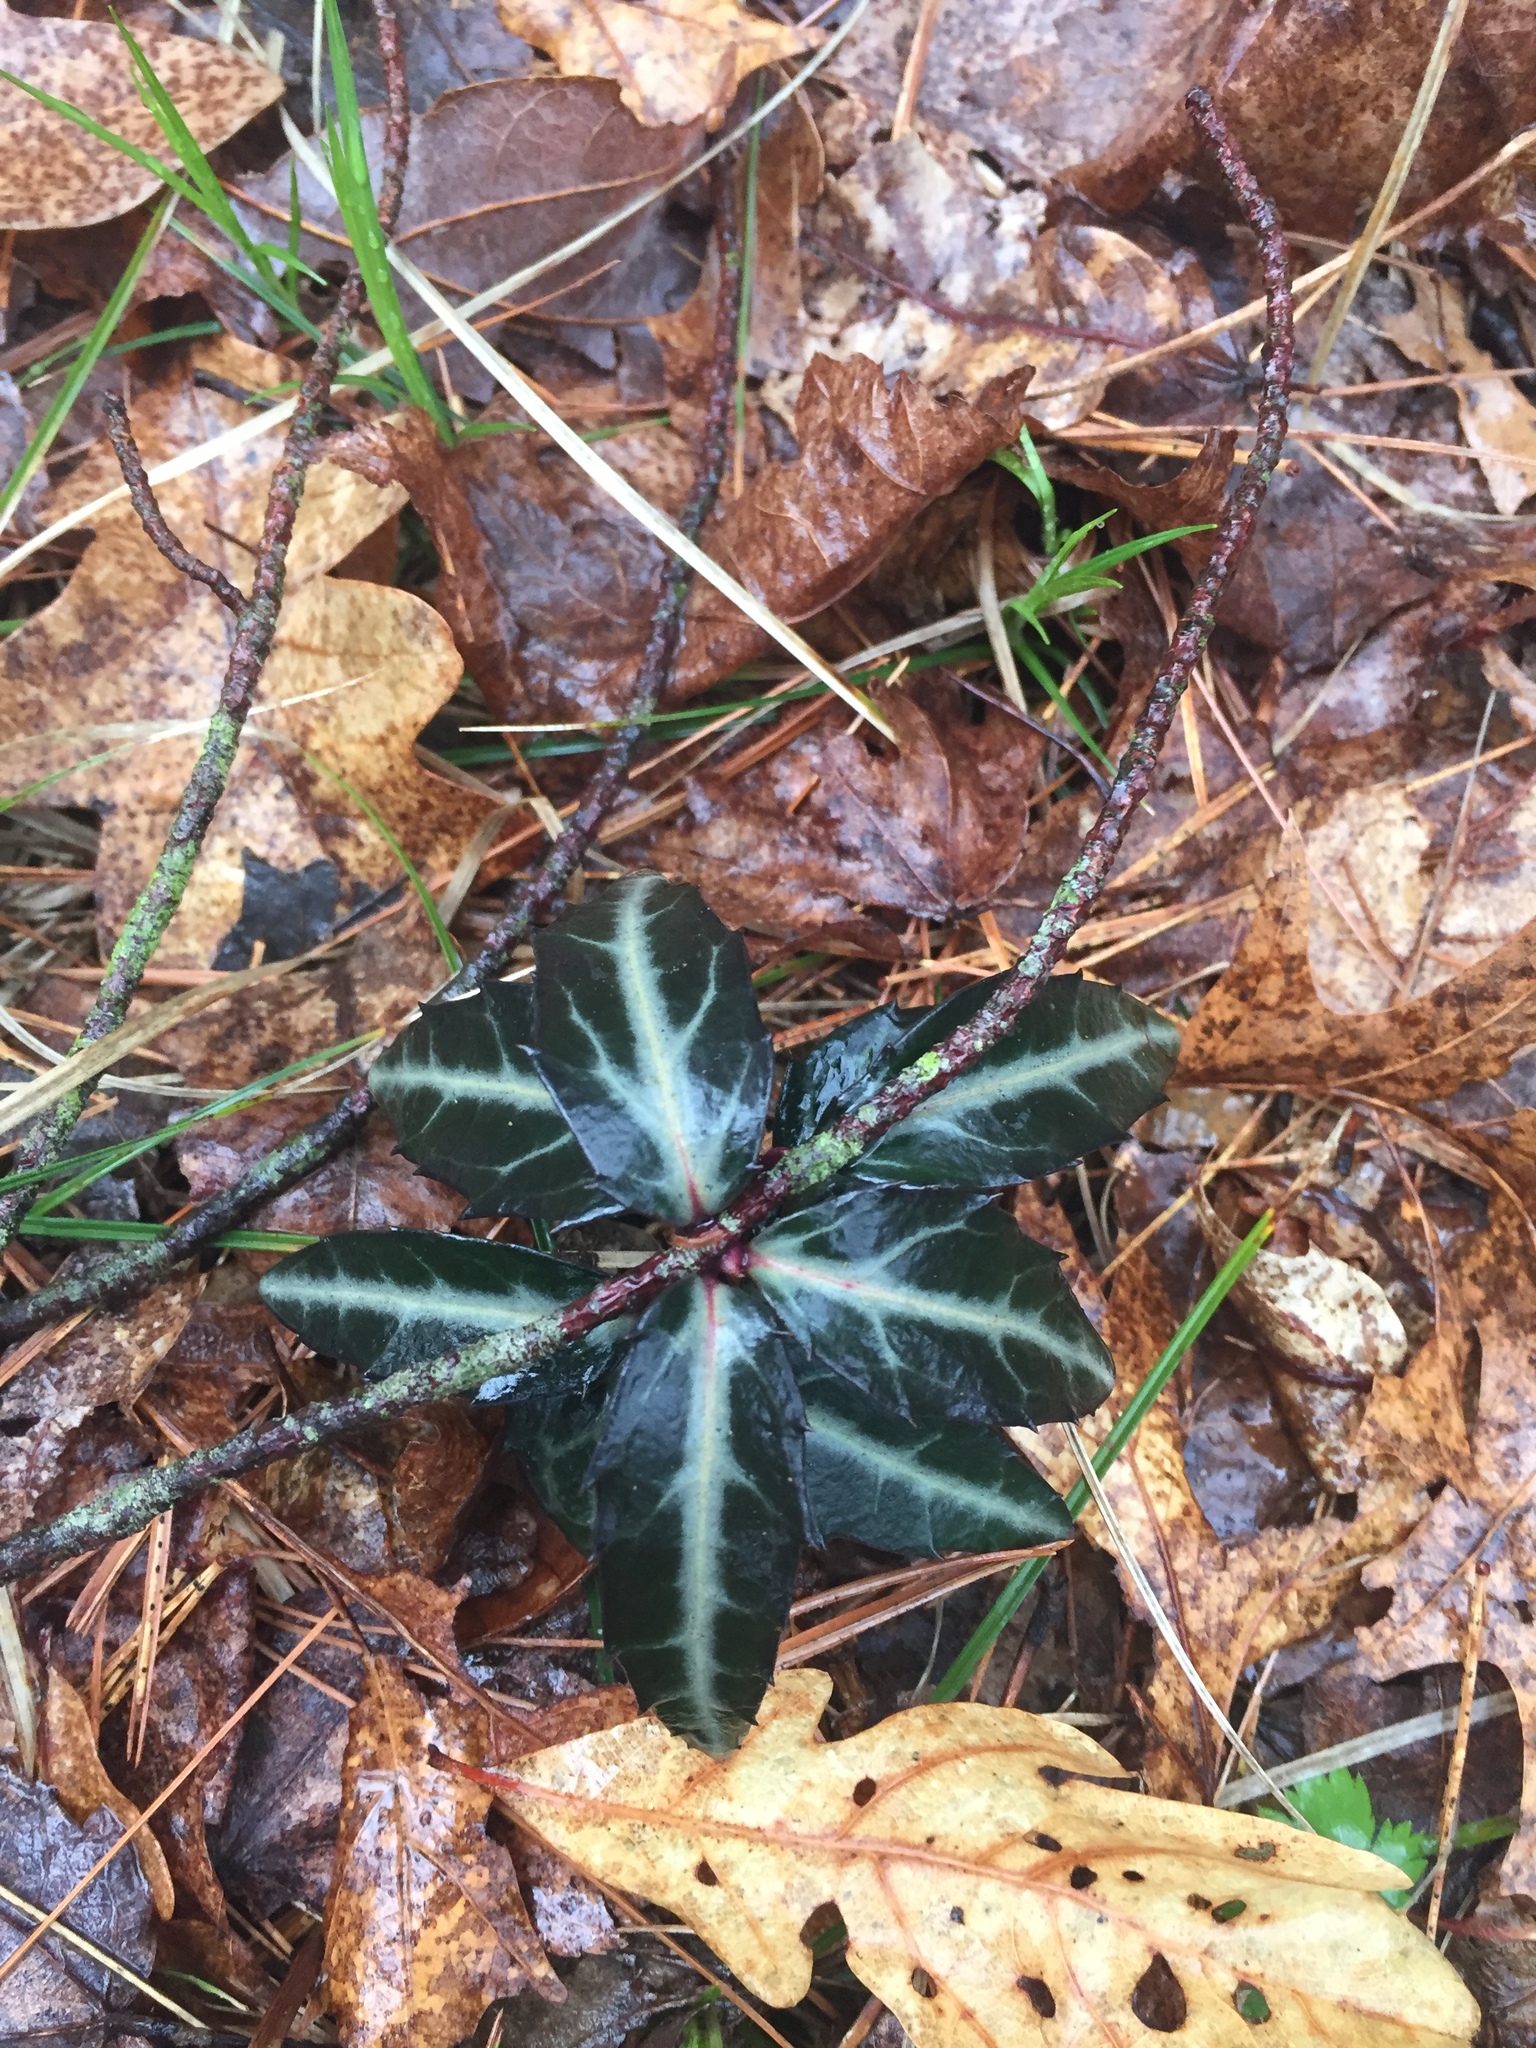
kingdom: Plantae
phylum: Tracheophyta
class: Magnoliopsida
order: Ericales
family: Ericaceae
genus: Chimaphila
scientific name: Chimaphila maculata
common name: Spotted pipsissewa
